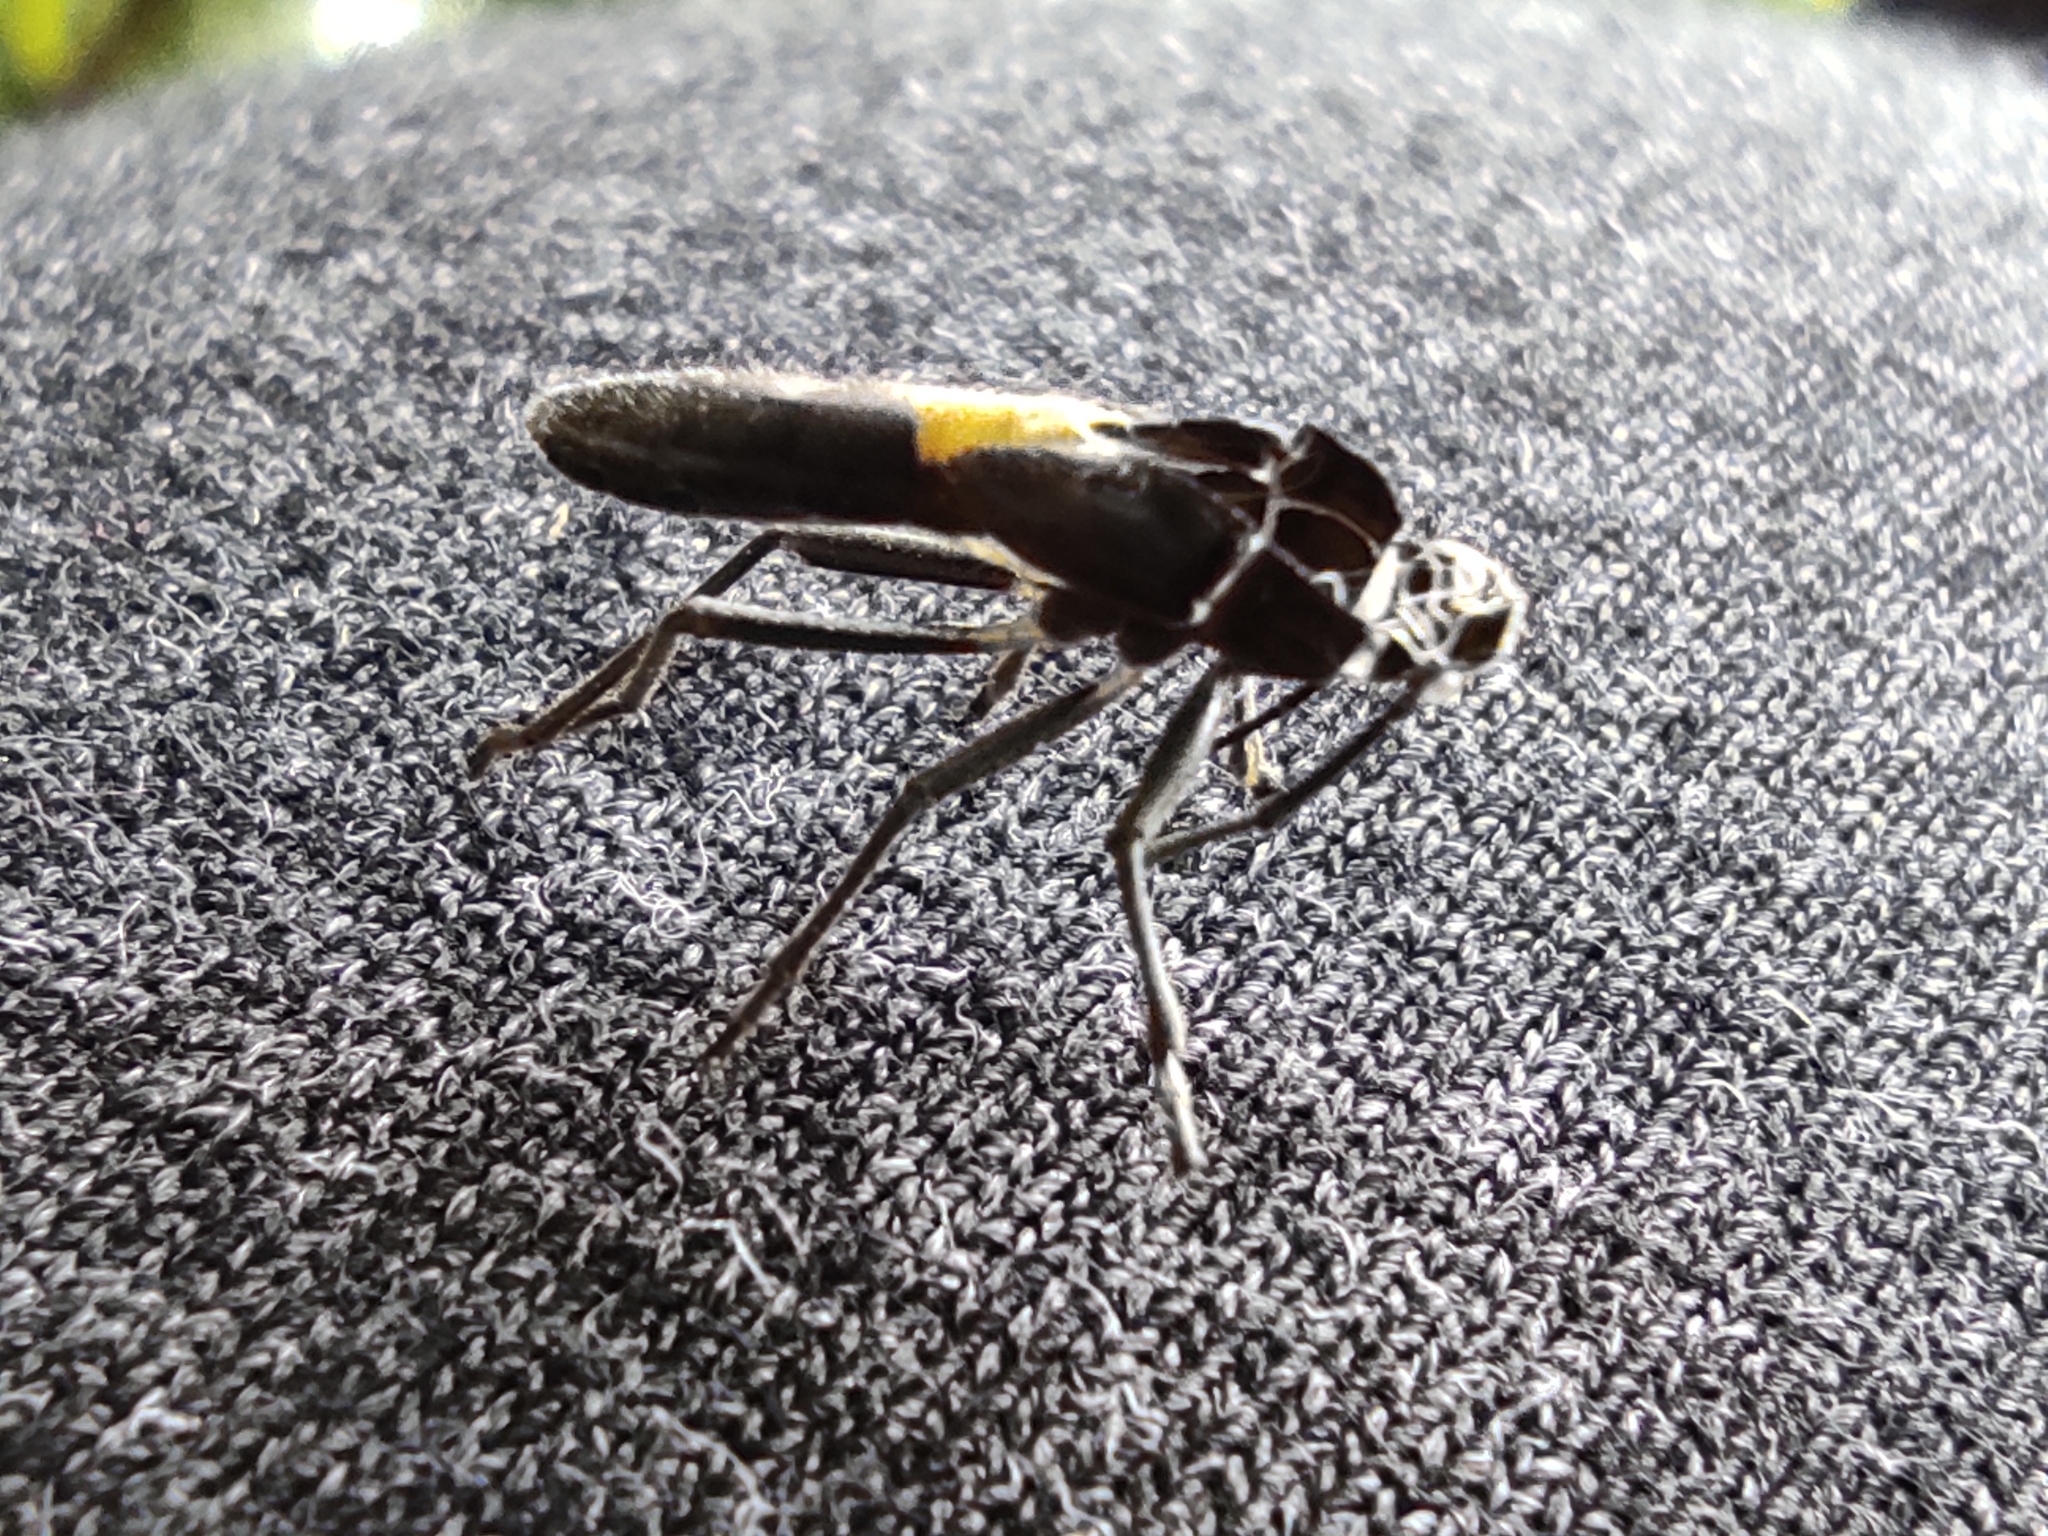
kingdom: Animalia
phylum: Arthropoda
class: Insecta
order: Hemiptera
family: Largidae
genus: Stenomacra
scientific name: Stenomacra marginella
